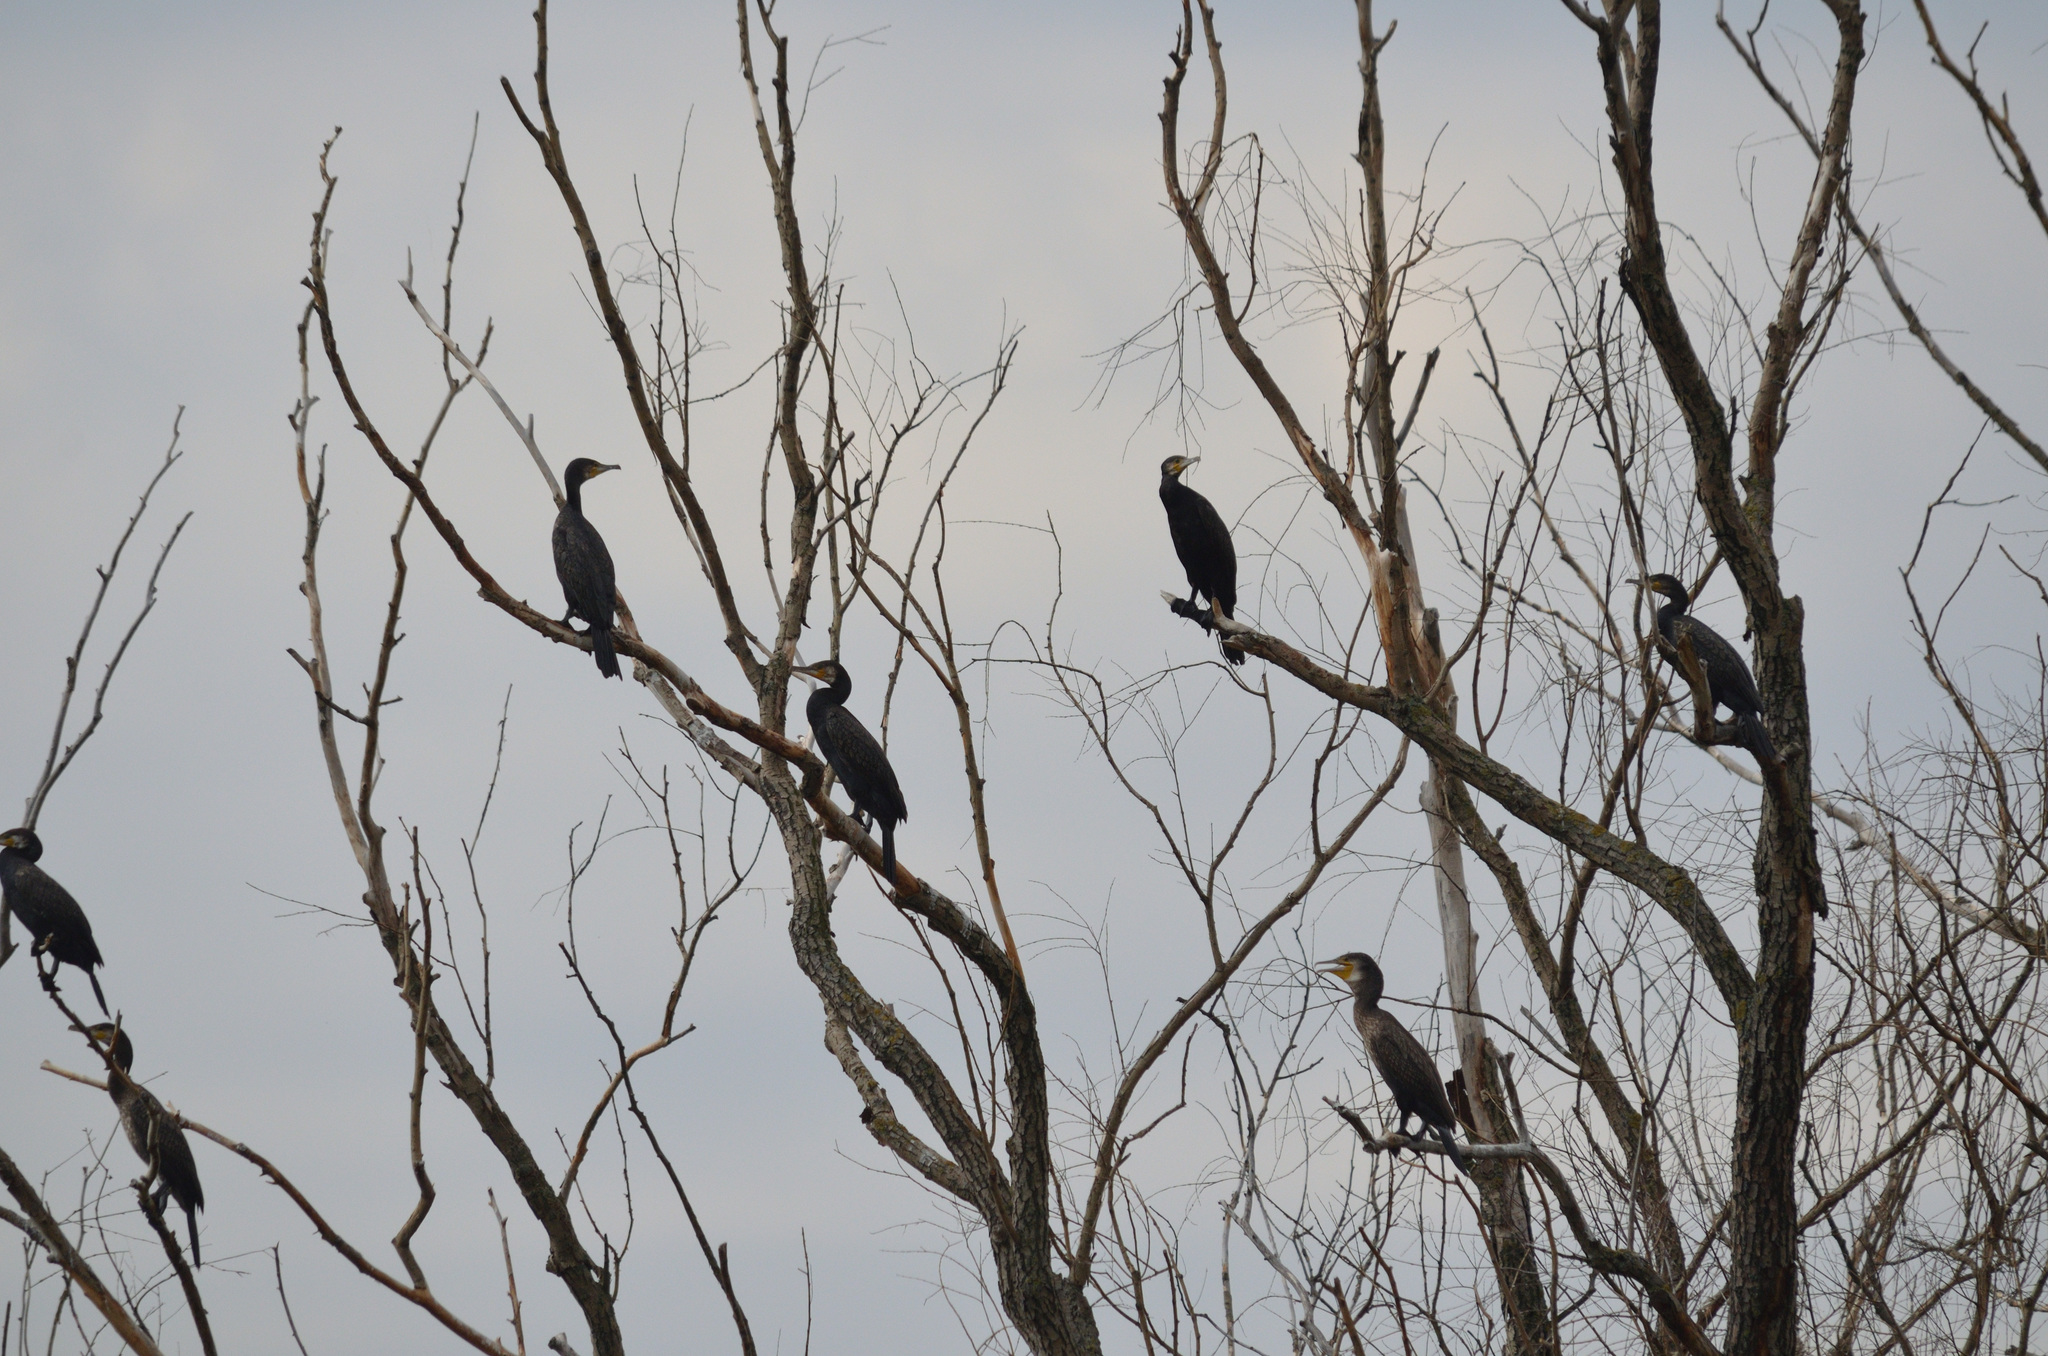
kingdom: Animalia
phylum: Chordata
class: Aves
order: Suliformes
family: Phalacrocoracidae
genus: Phalacrocorax
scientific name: Phalacrocorax carbo
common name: Great cormorant
